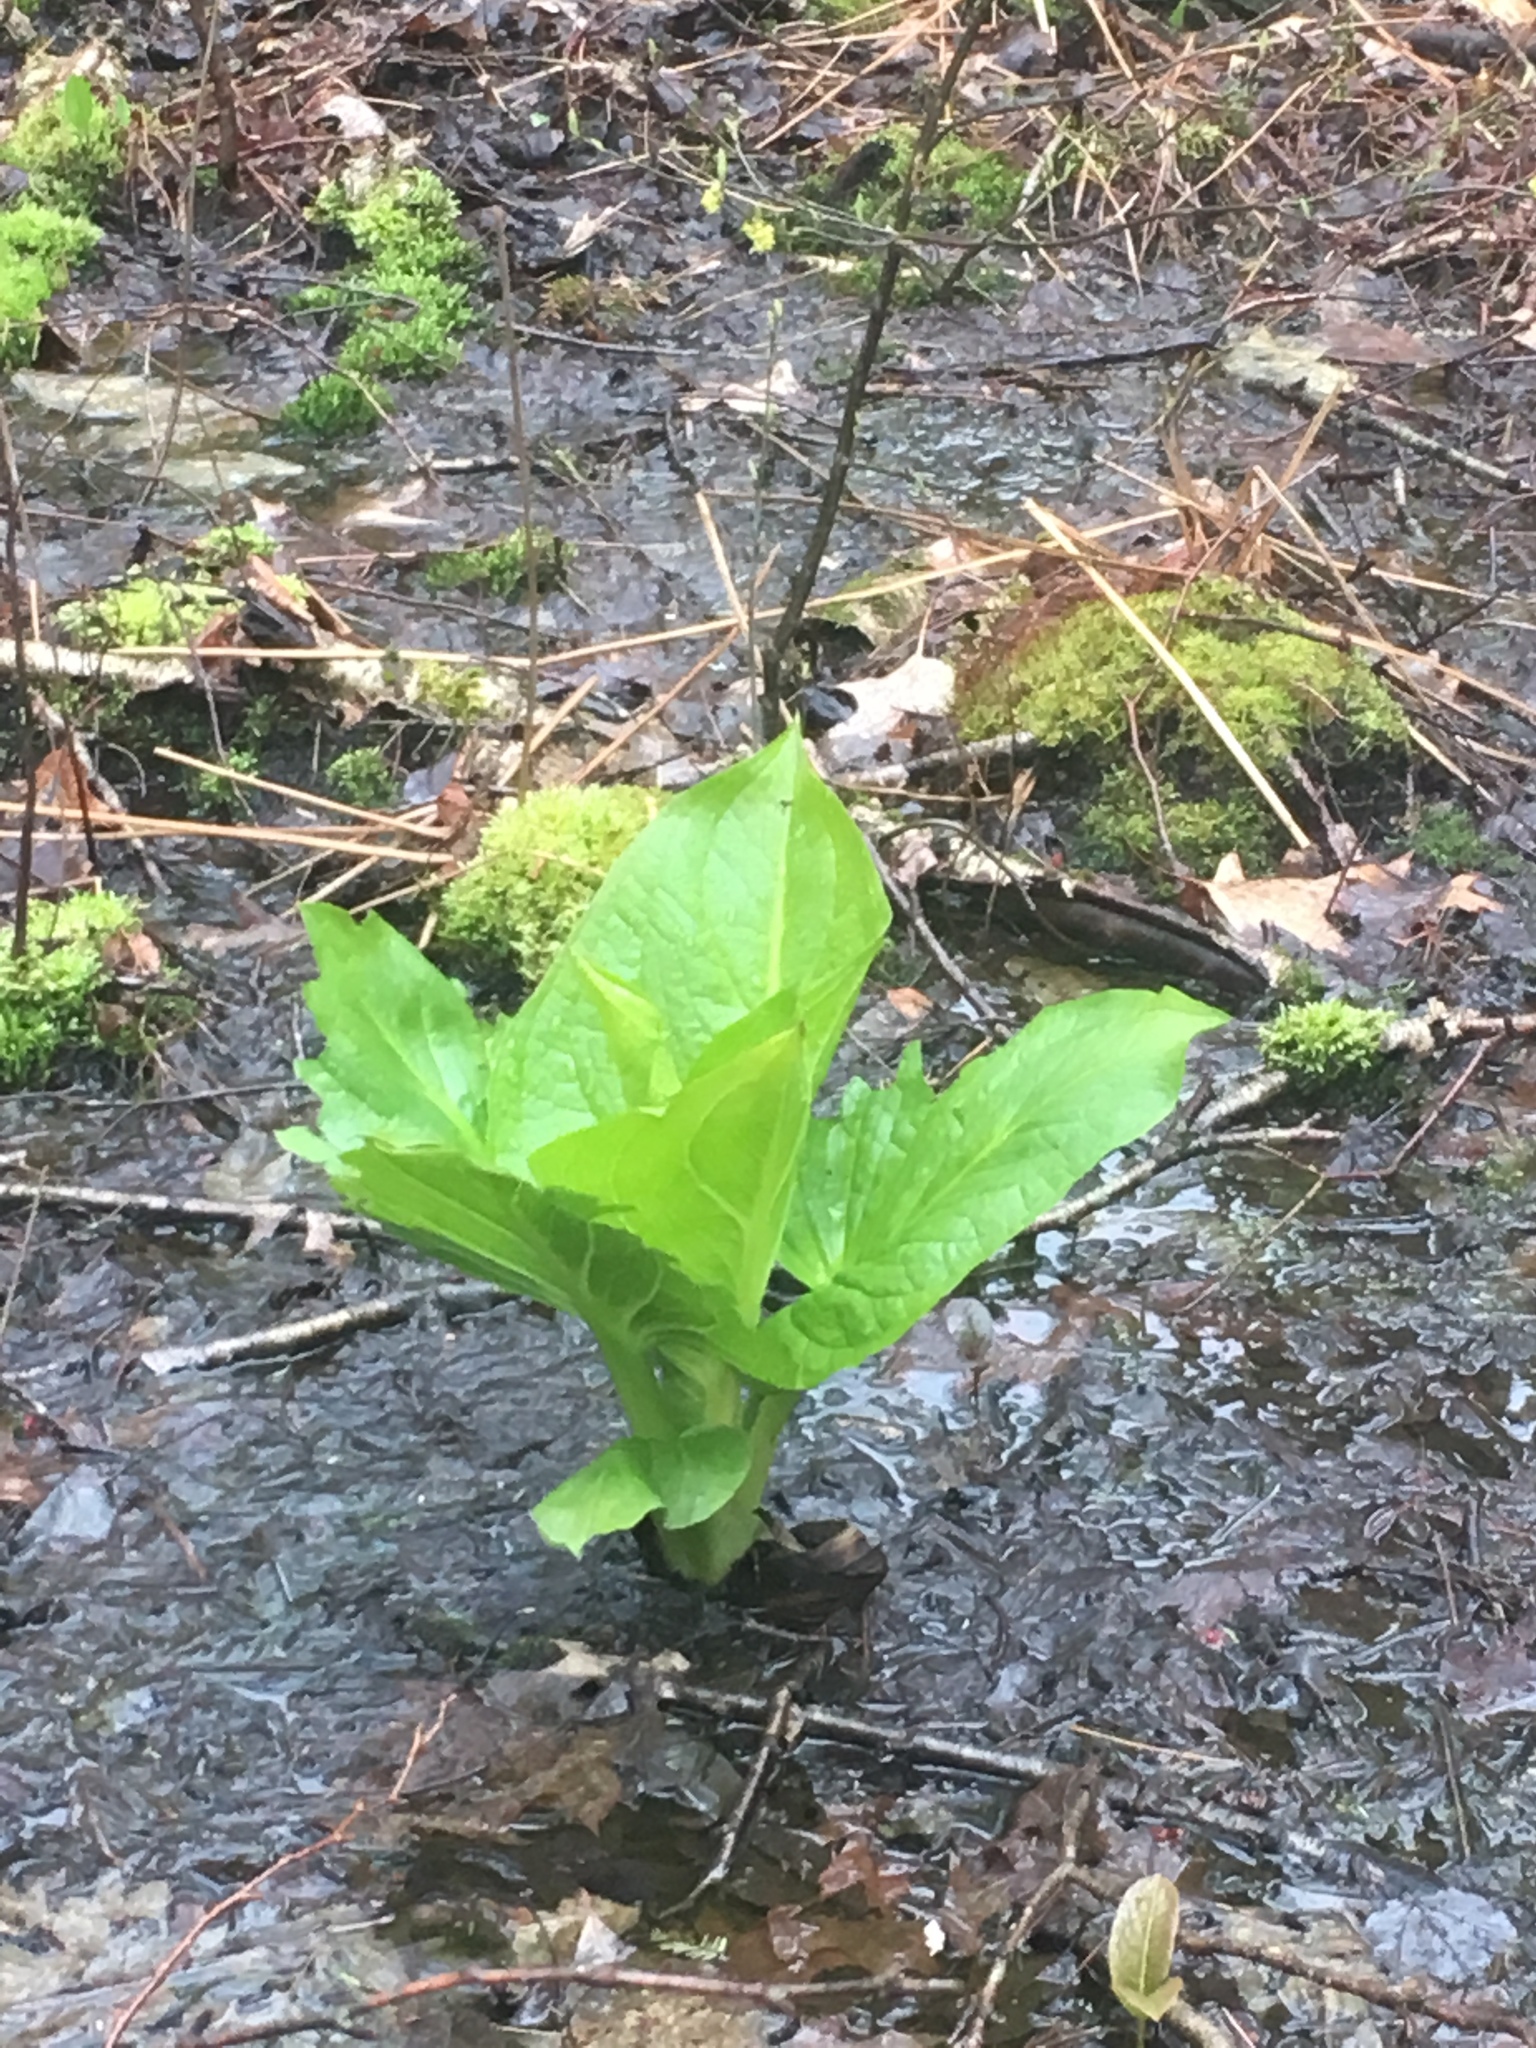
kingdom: Plantae
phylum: Tracheophyta
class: Liliopsida
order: Alismatales
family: Araceae
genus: Symplocarpus
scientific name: Symplocarpus foetidus
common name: Eastern skunk cabbage
